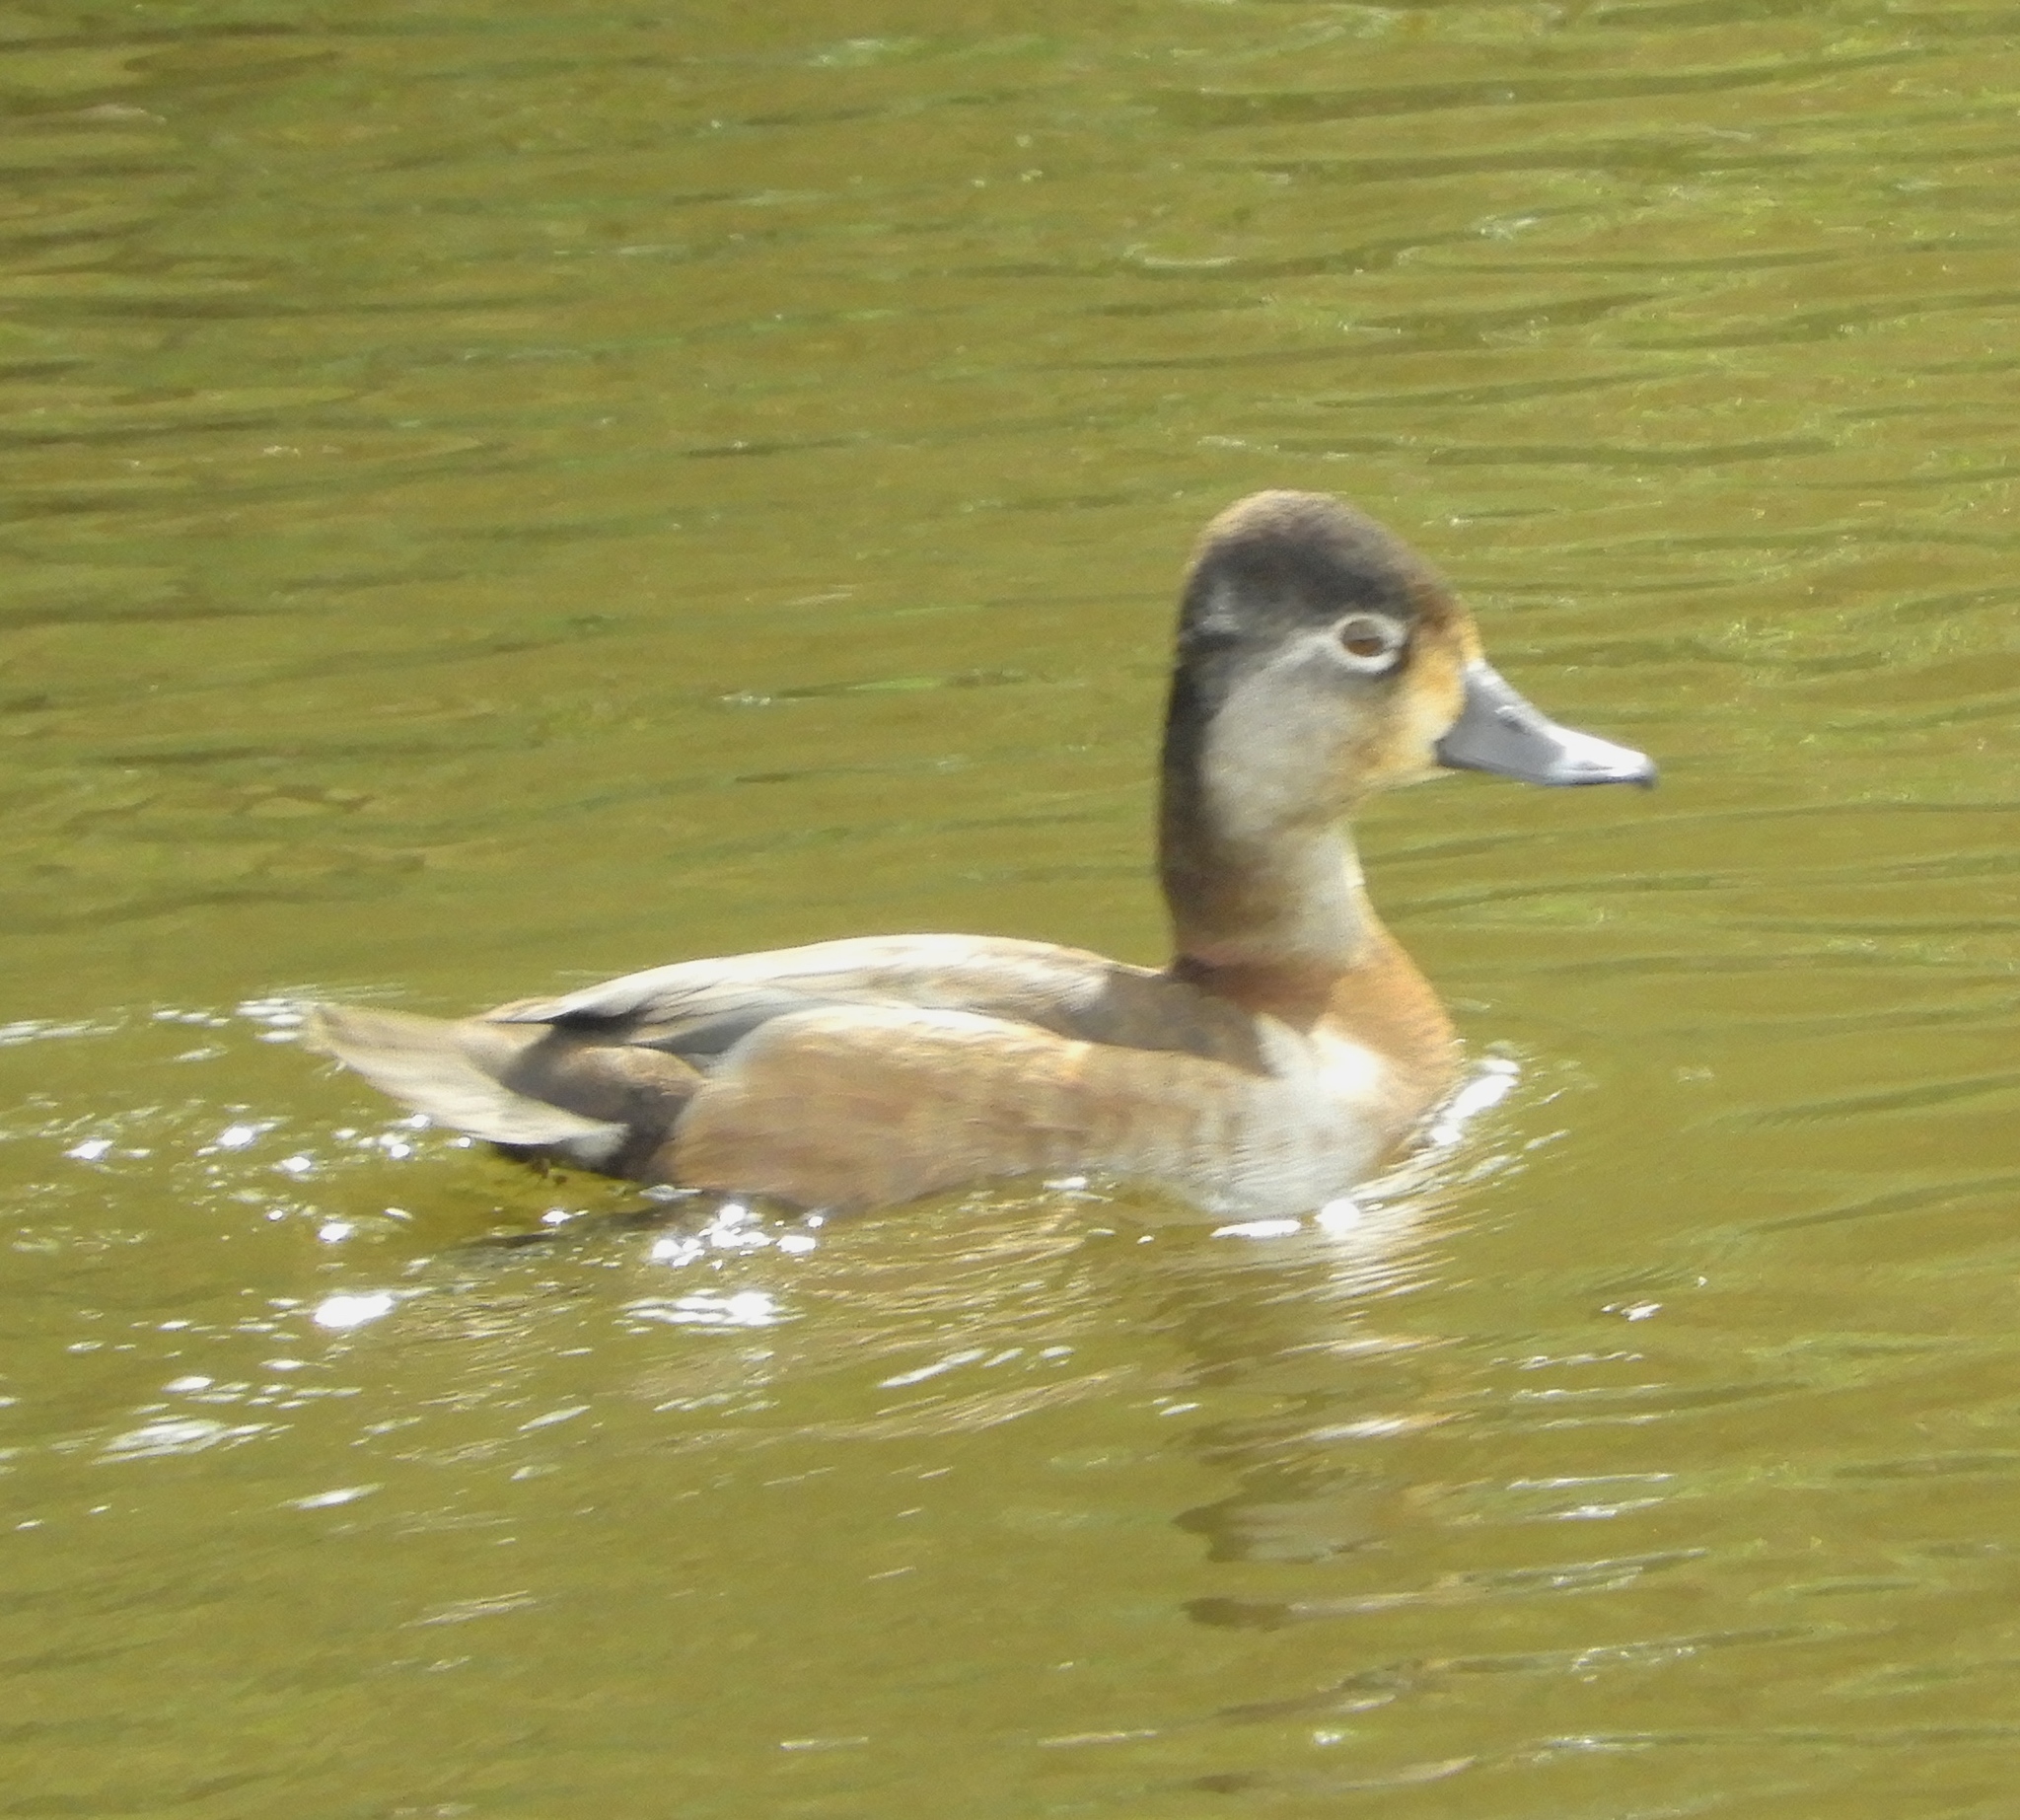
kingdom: Animalia
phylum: Chordata
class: Aves
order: Anseriformes
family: Anatidae
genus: Aythya
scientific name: Aythya collaris
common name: Ring-necked duck
